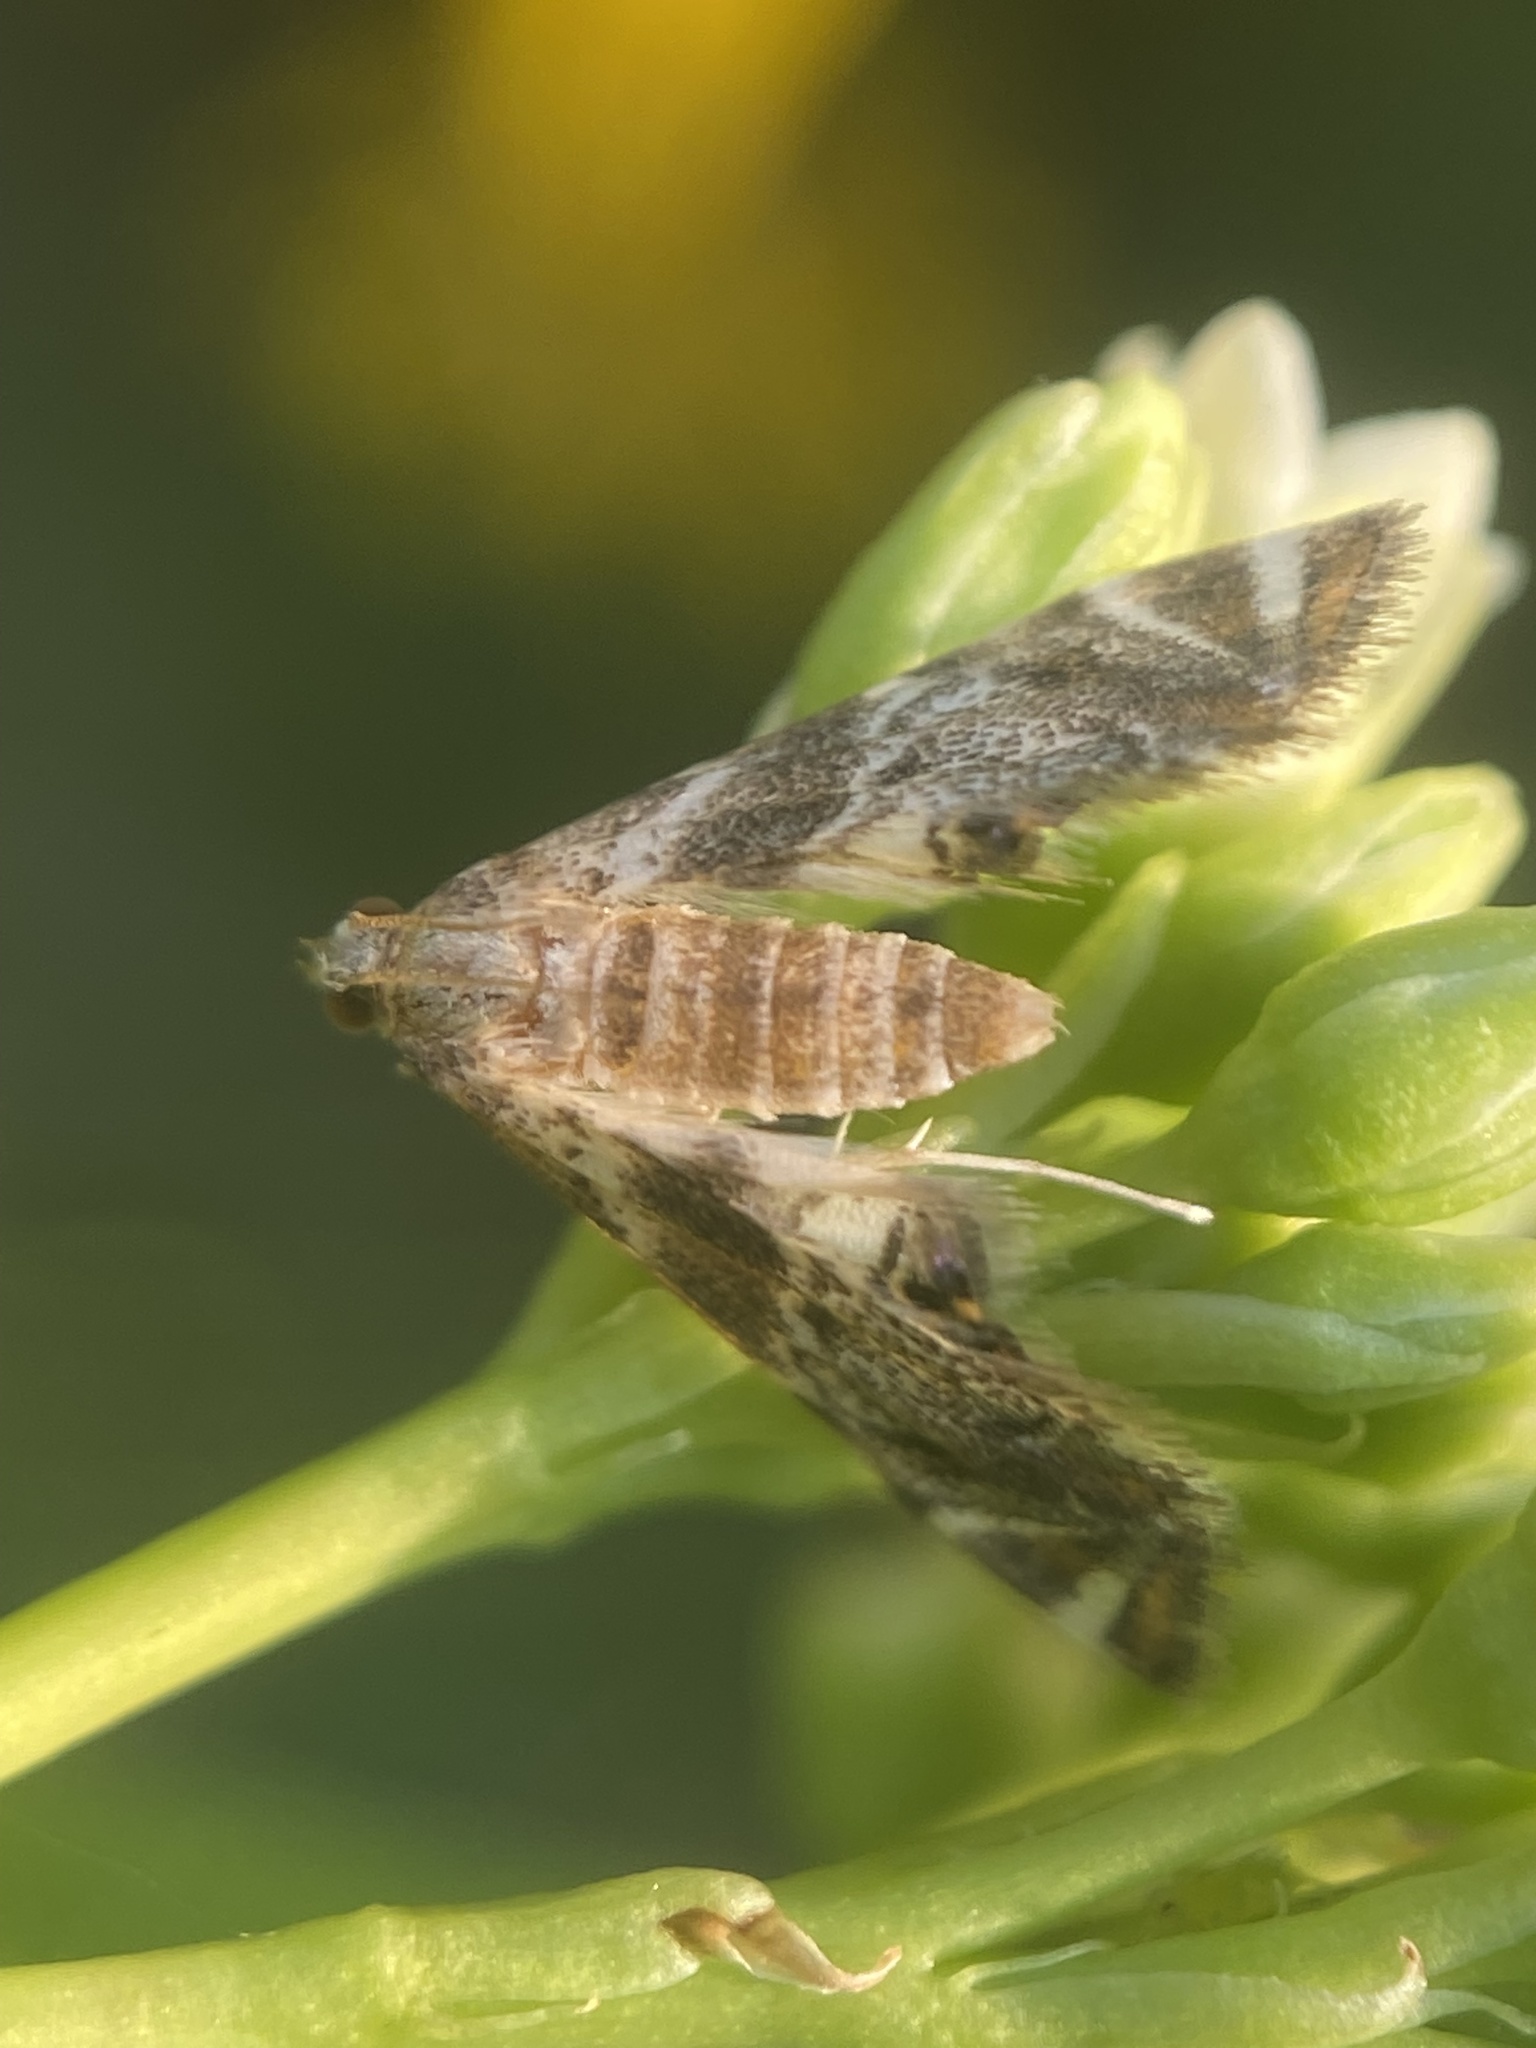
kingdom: Animalia
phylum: Arthropoda
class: Insecta
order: Lepidoptera
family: Crambidae
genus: Petrophila
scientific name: Petrophila fulicalis
